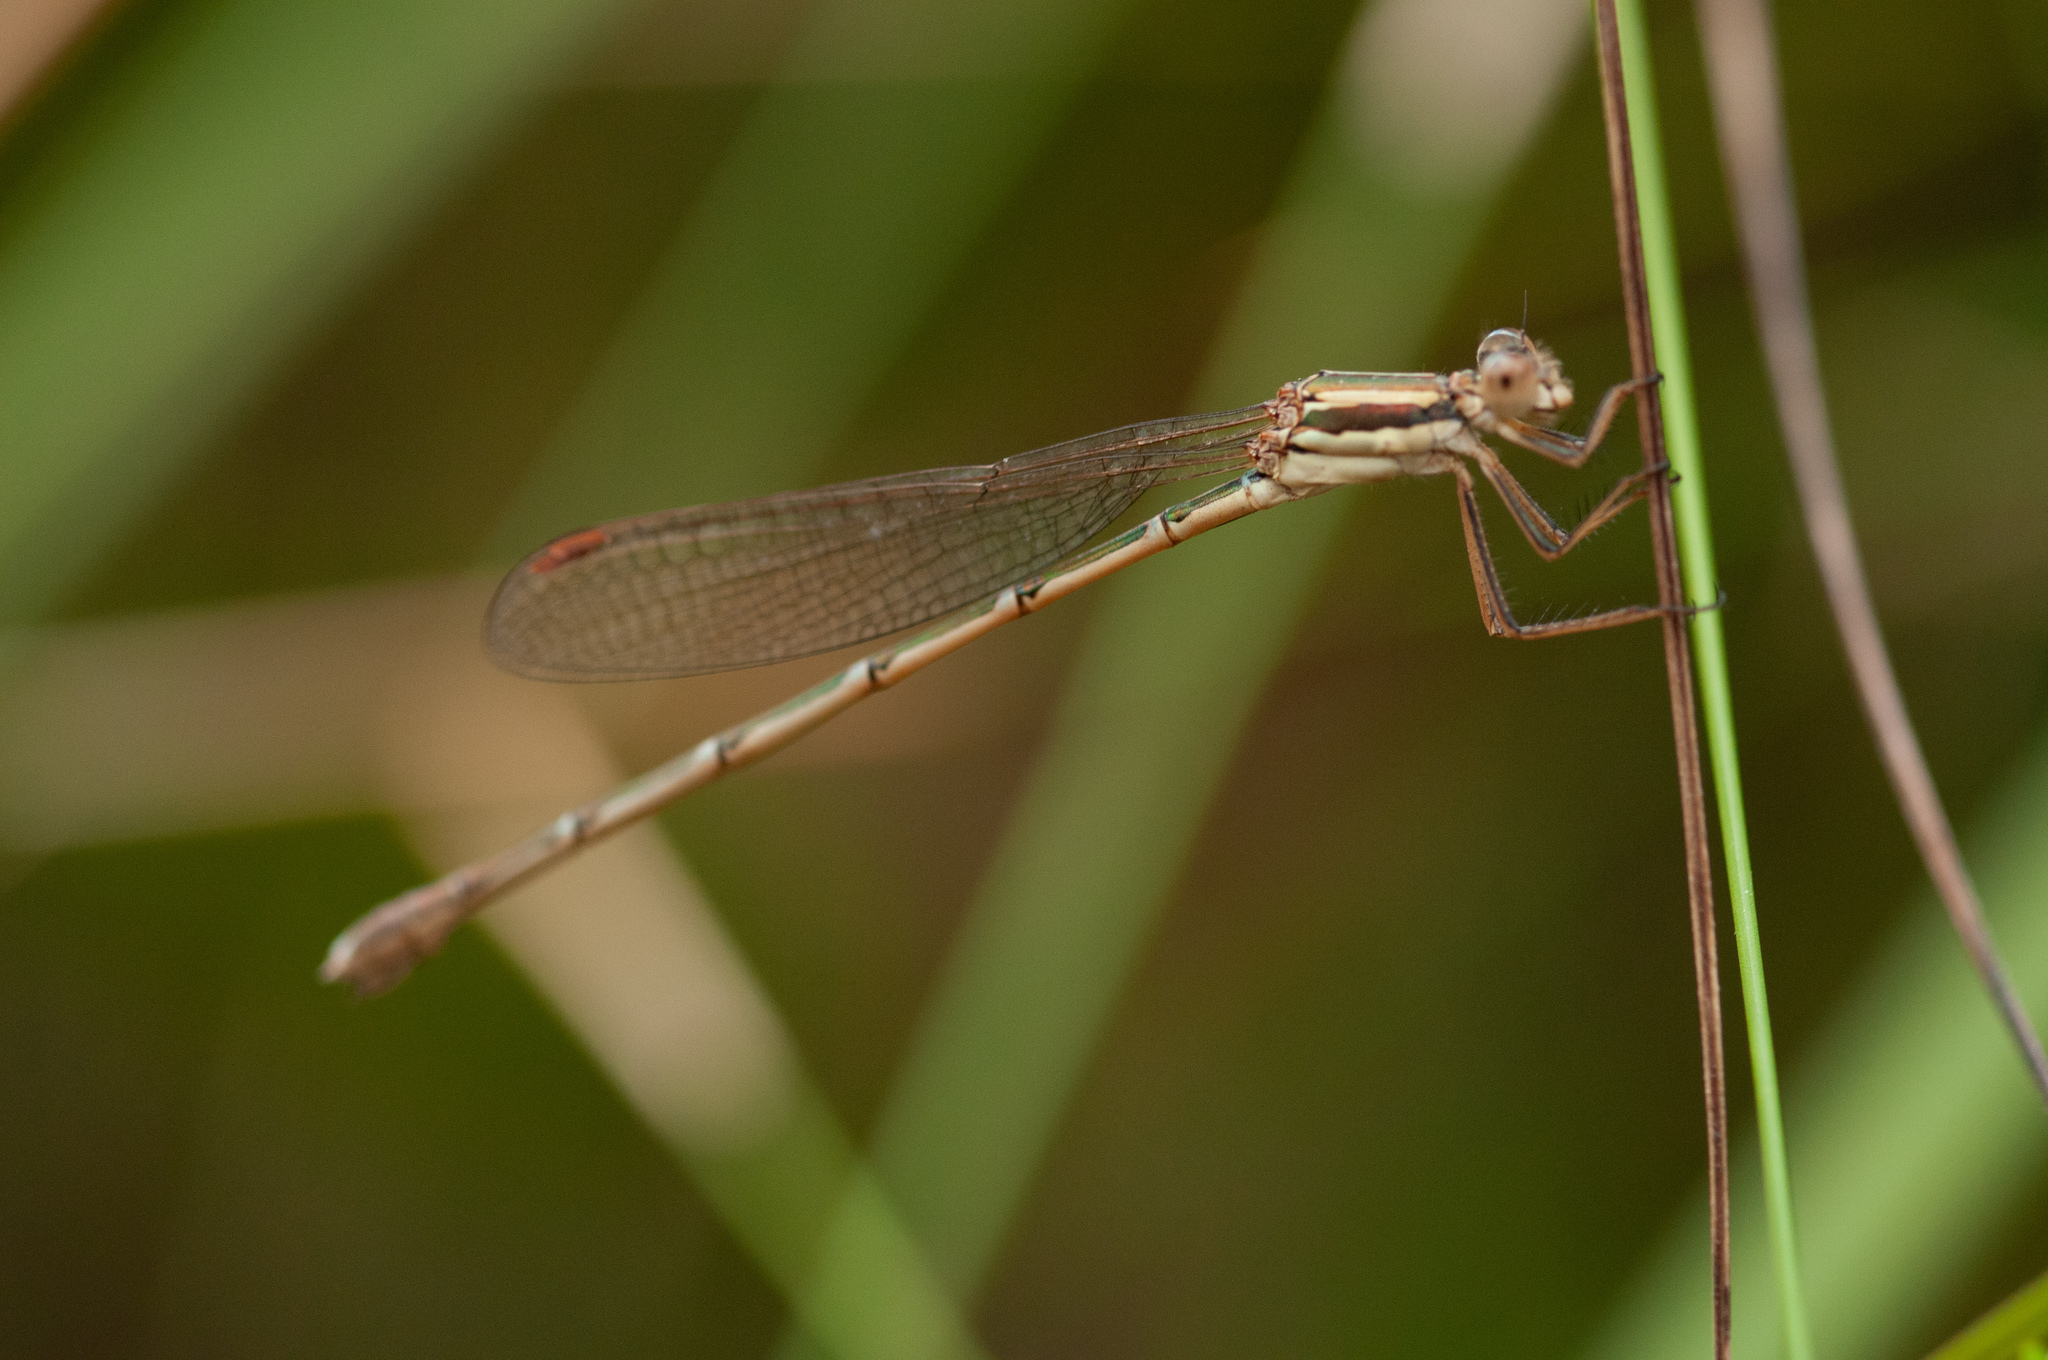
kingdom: Animalia
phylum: Arthropoda
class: Insecta
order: Odonata
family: Lestidae
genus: Austrolestes
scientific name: Austrolestes analis
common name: Slender ringtail
